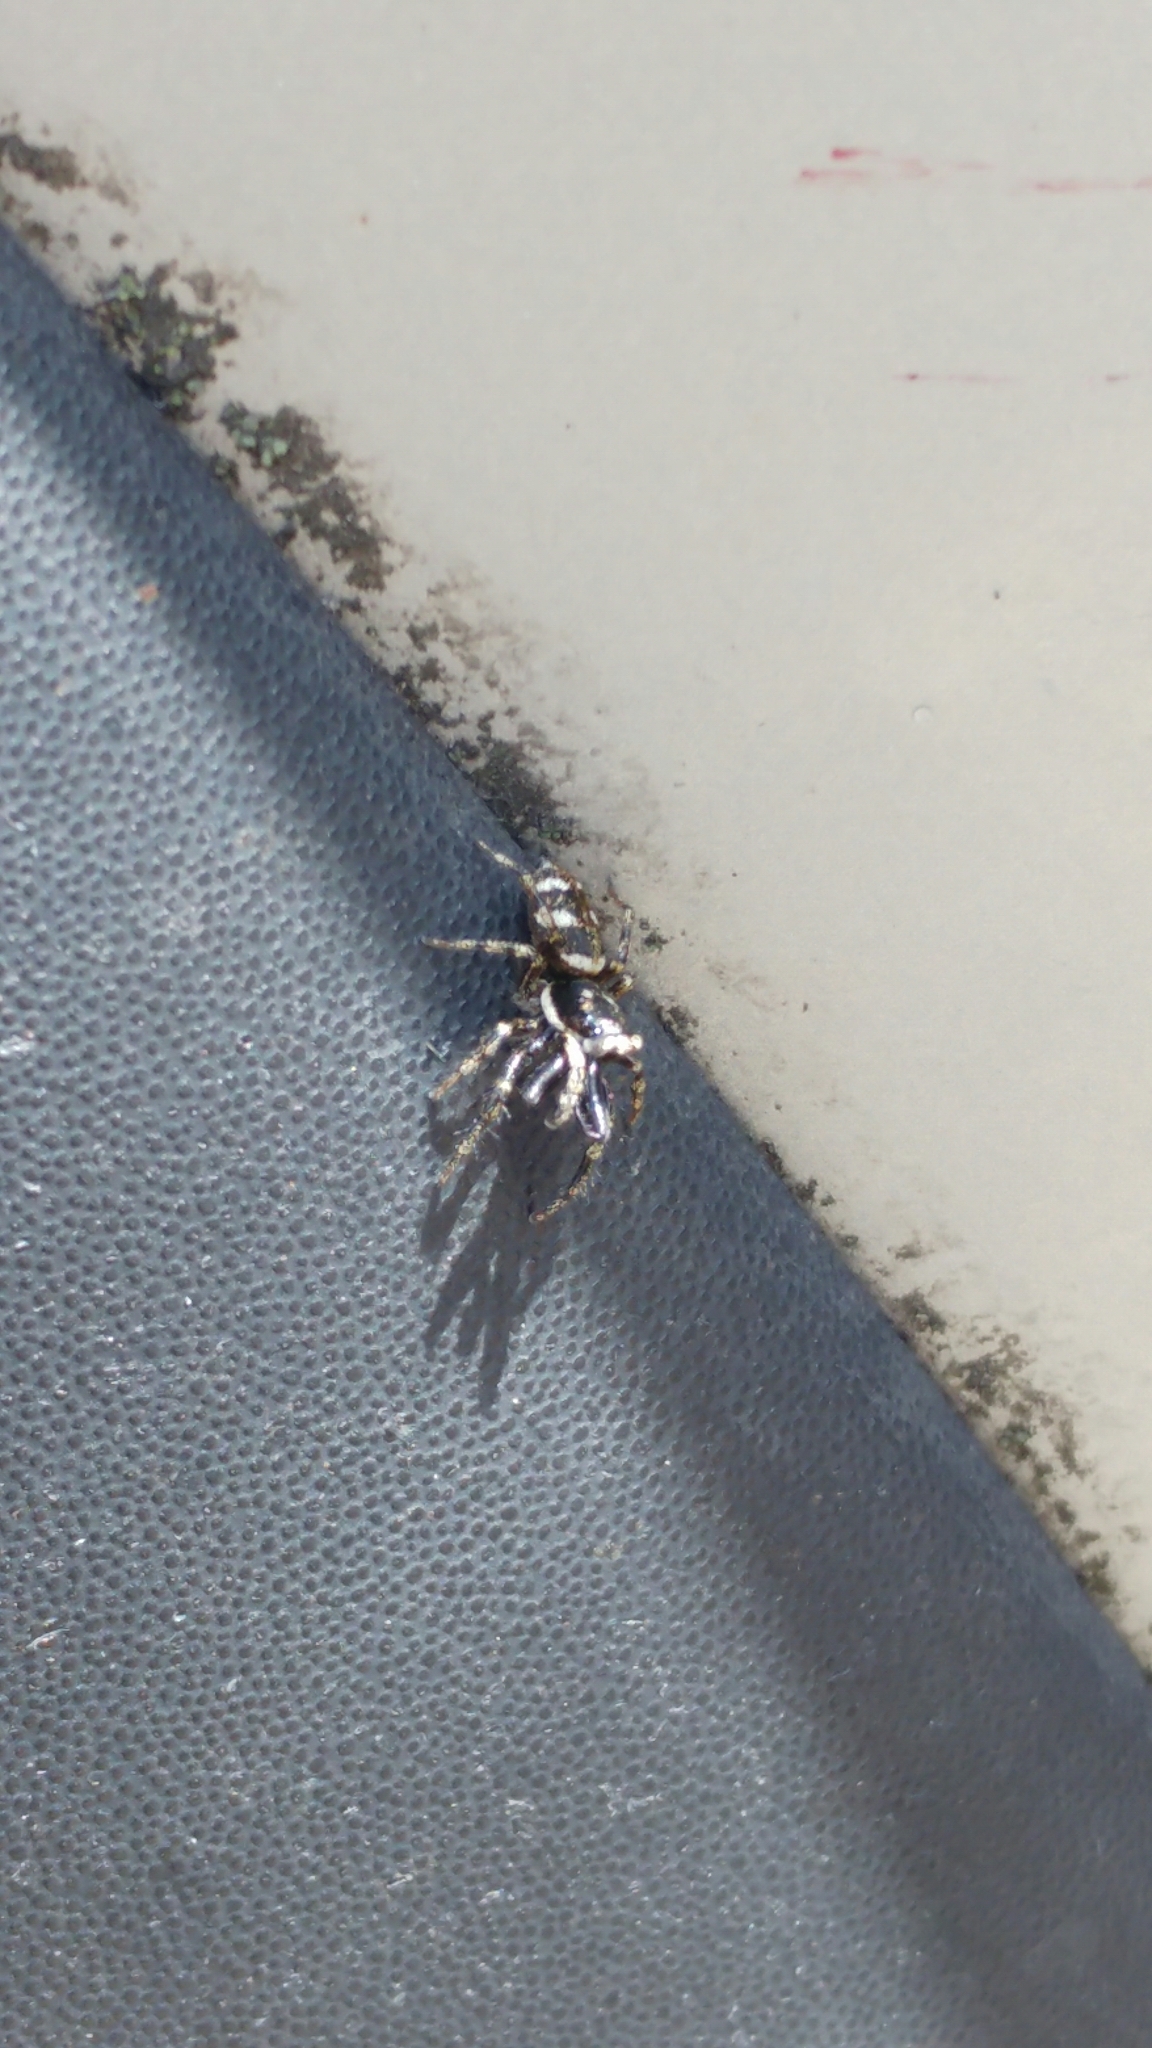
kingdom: Animalia
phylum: Arthropoda
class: Arachnida
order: Araneae
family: Salticidae
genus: Salticus
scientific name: Salticus scenicus
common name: Zebra jumper
